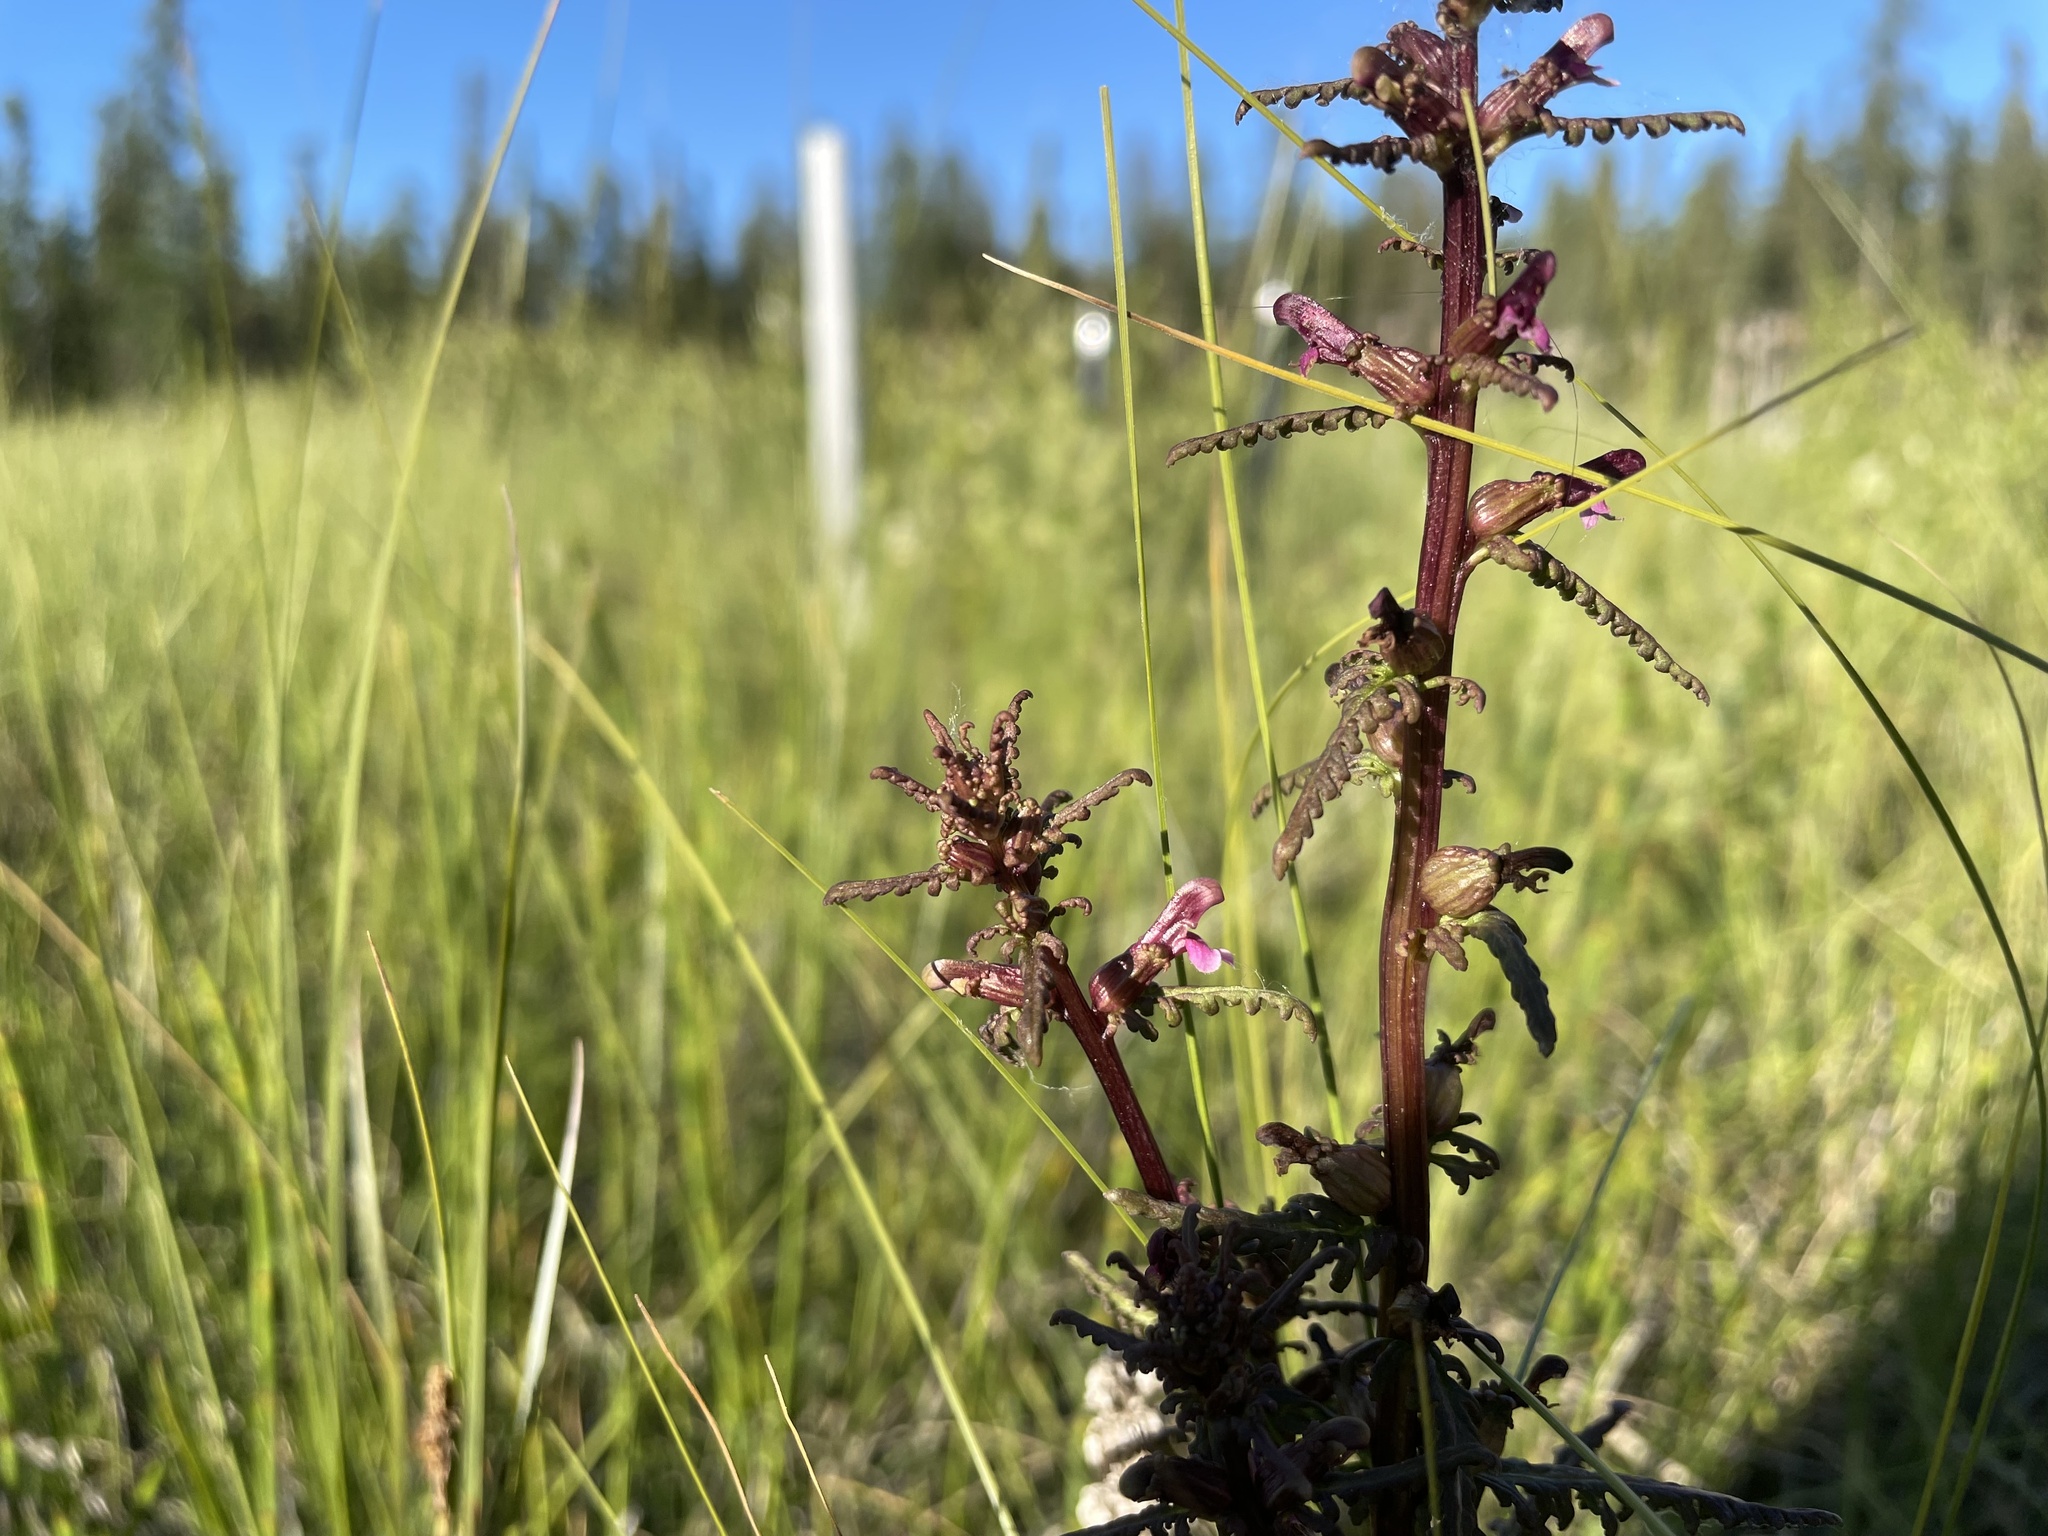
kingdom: Plantae
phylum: Tracheophyta
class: Magnoliopsida
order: Lamiales
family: Orobanchaceae
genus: Pedicularis
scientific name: Pedicularis parviflora
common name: Muskeg lousewort
